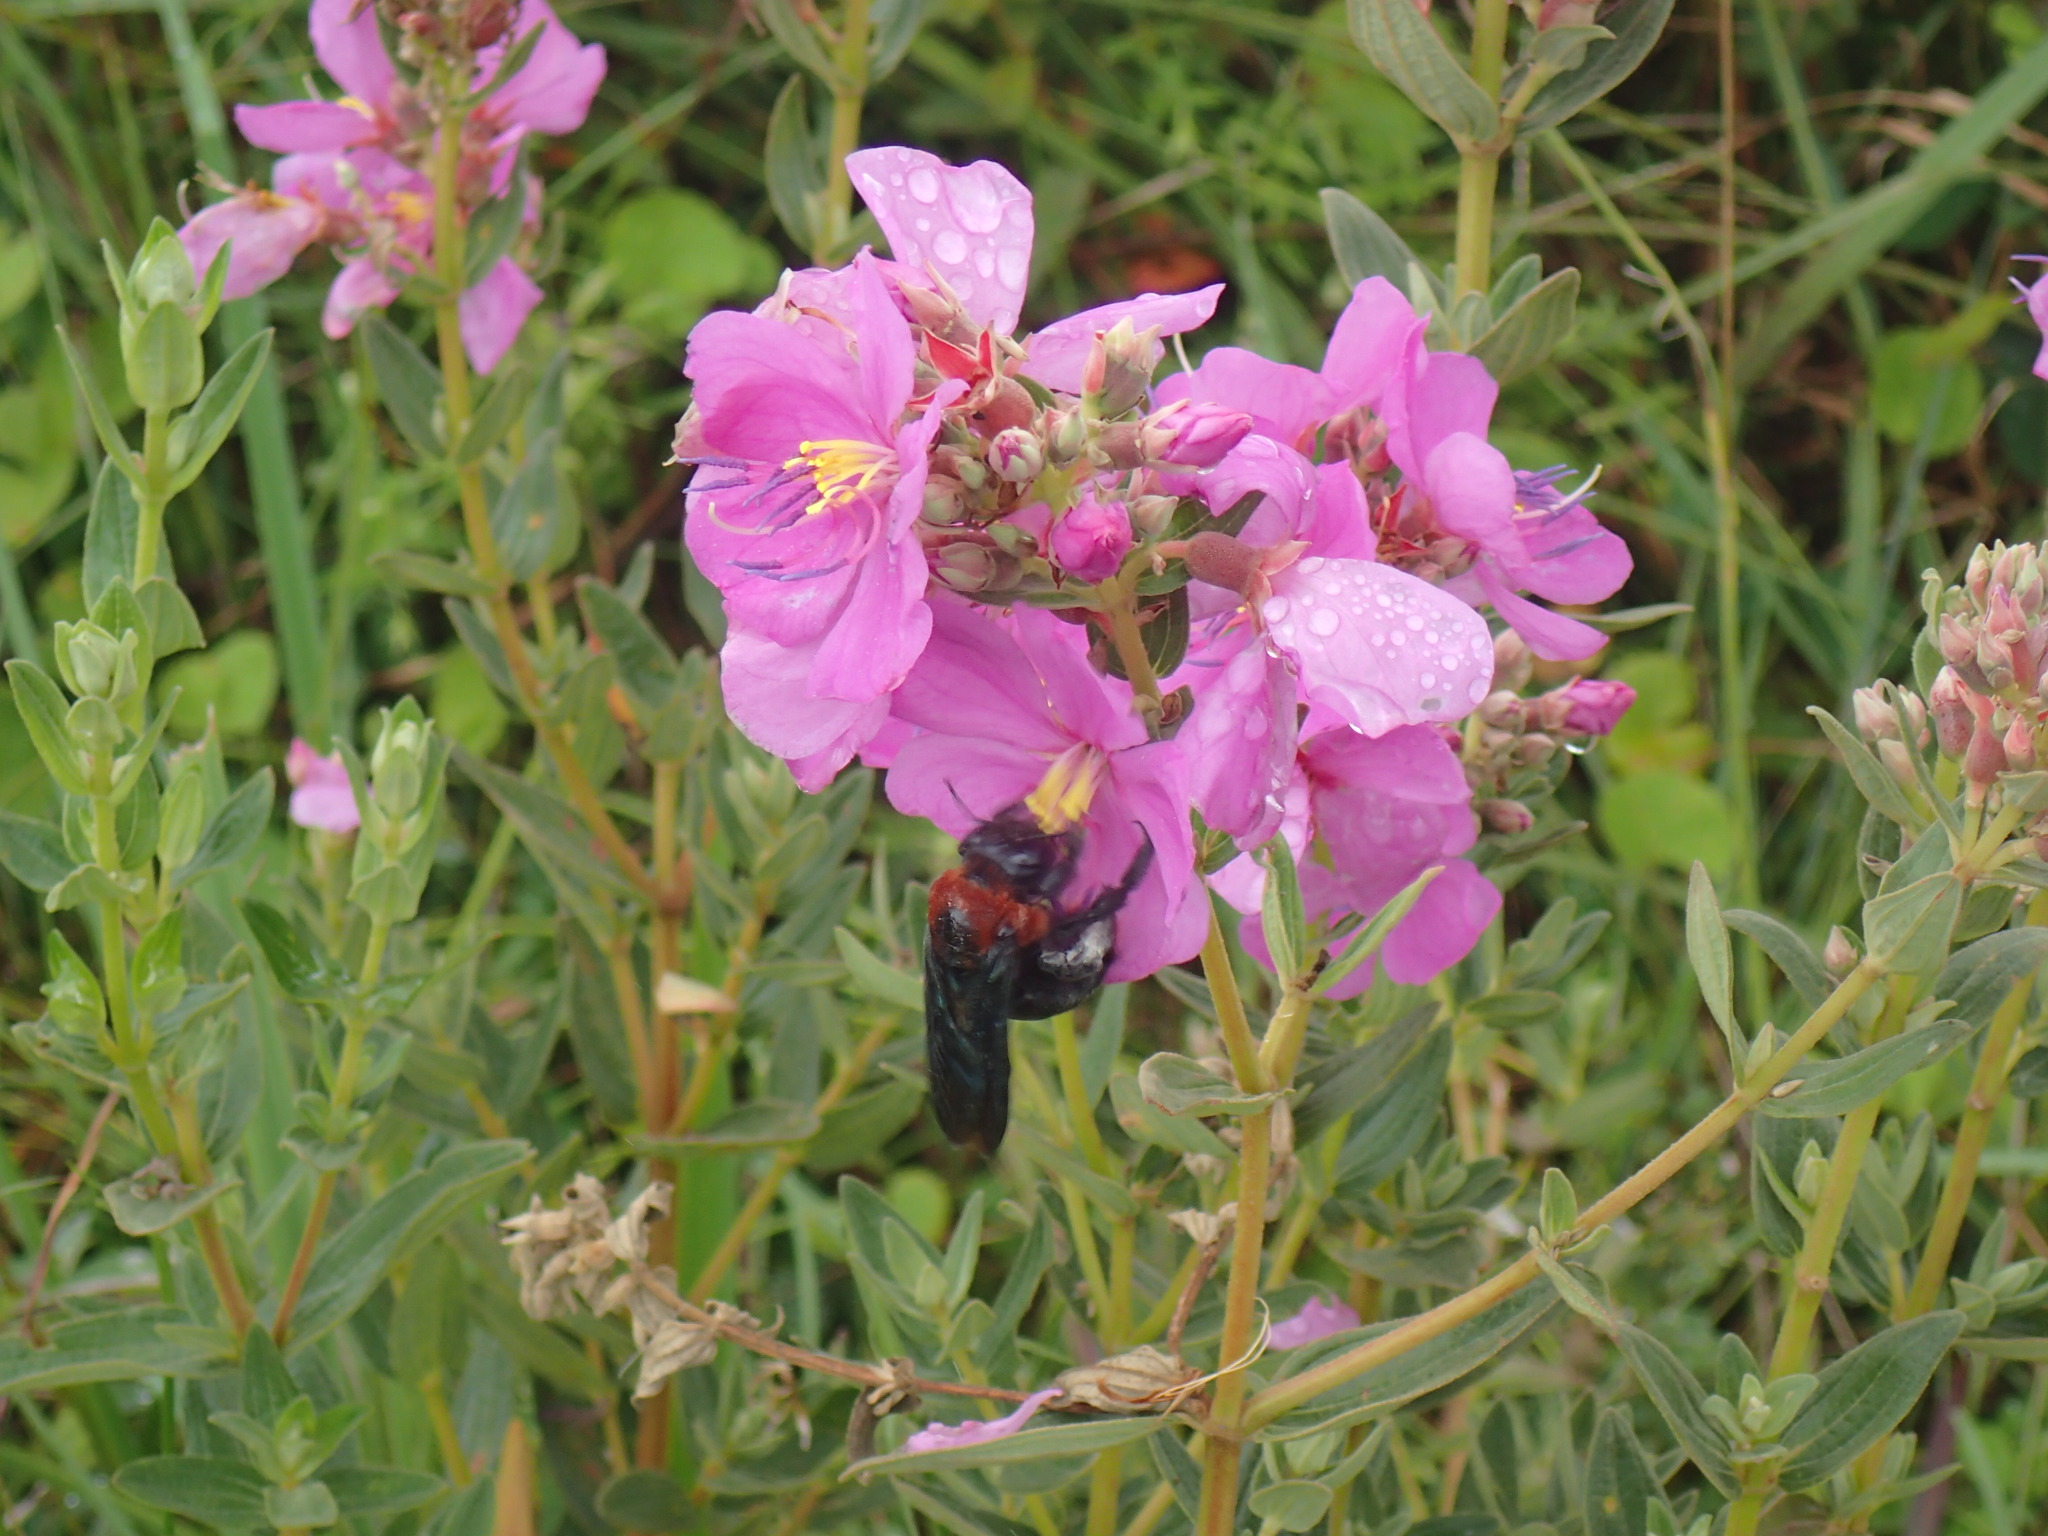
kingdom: Animalia
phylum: Arthropoda
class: Insecta
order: Hymenoptera
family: Apidae
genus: Xylocopa
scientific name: Xylocopa flavorufa
